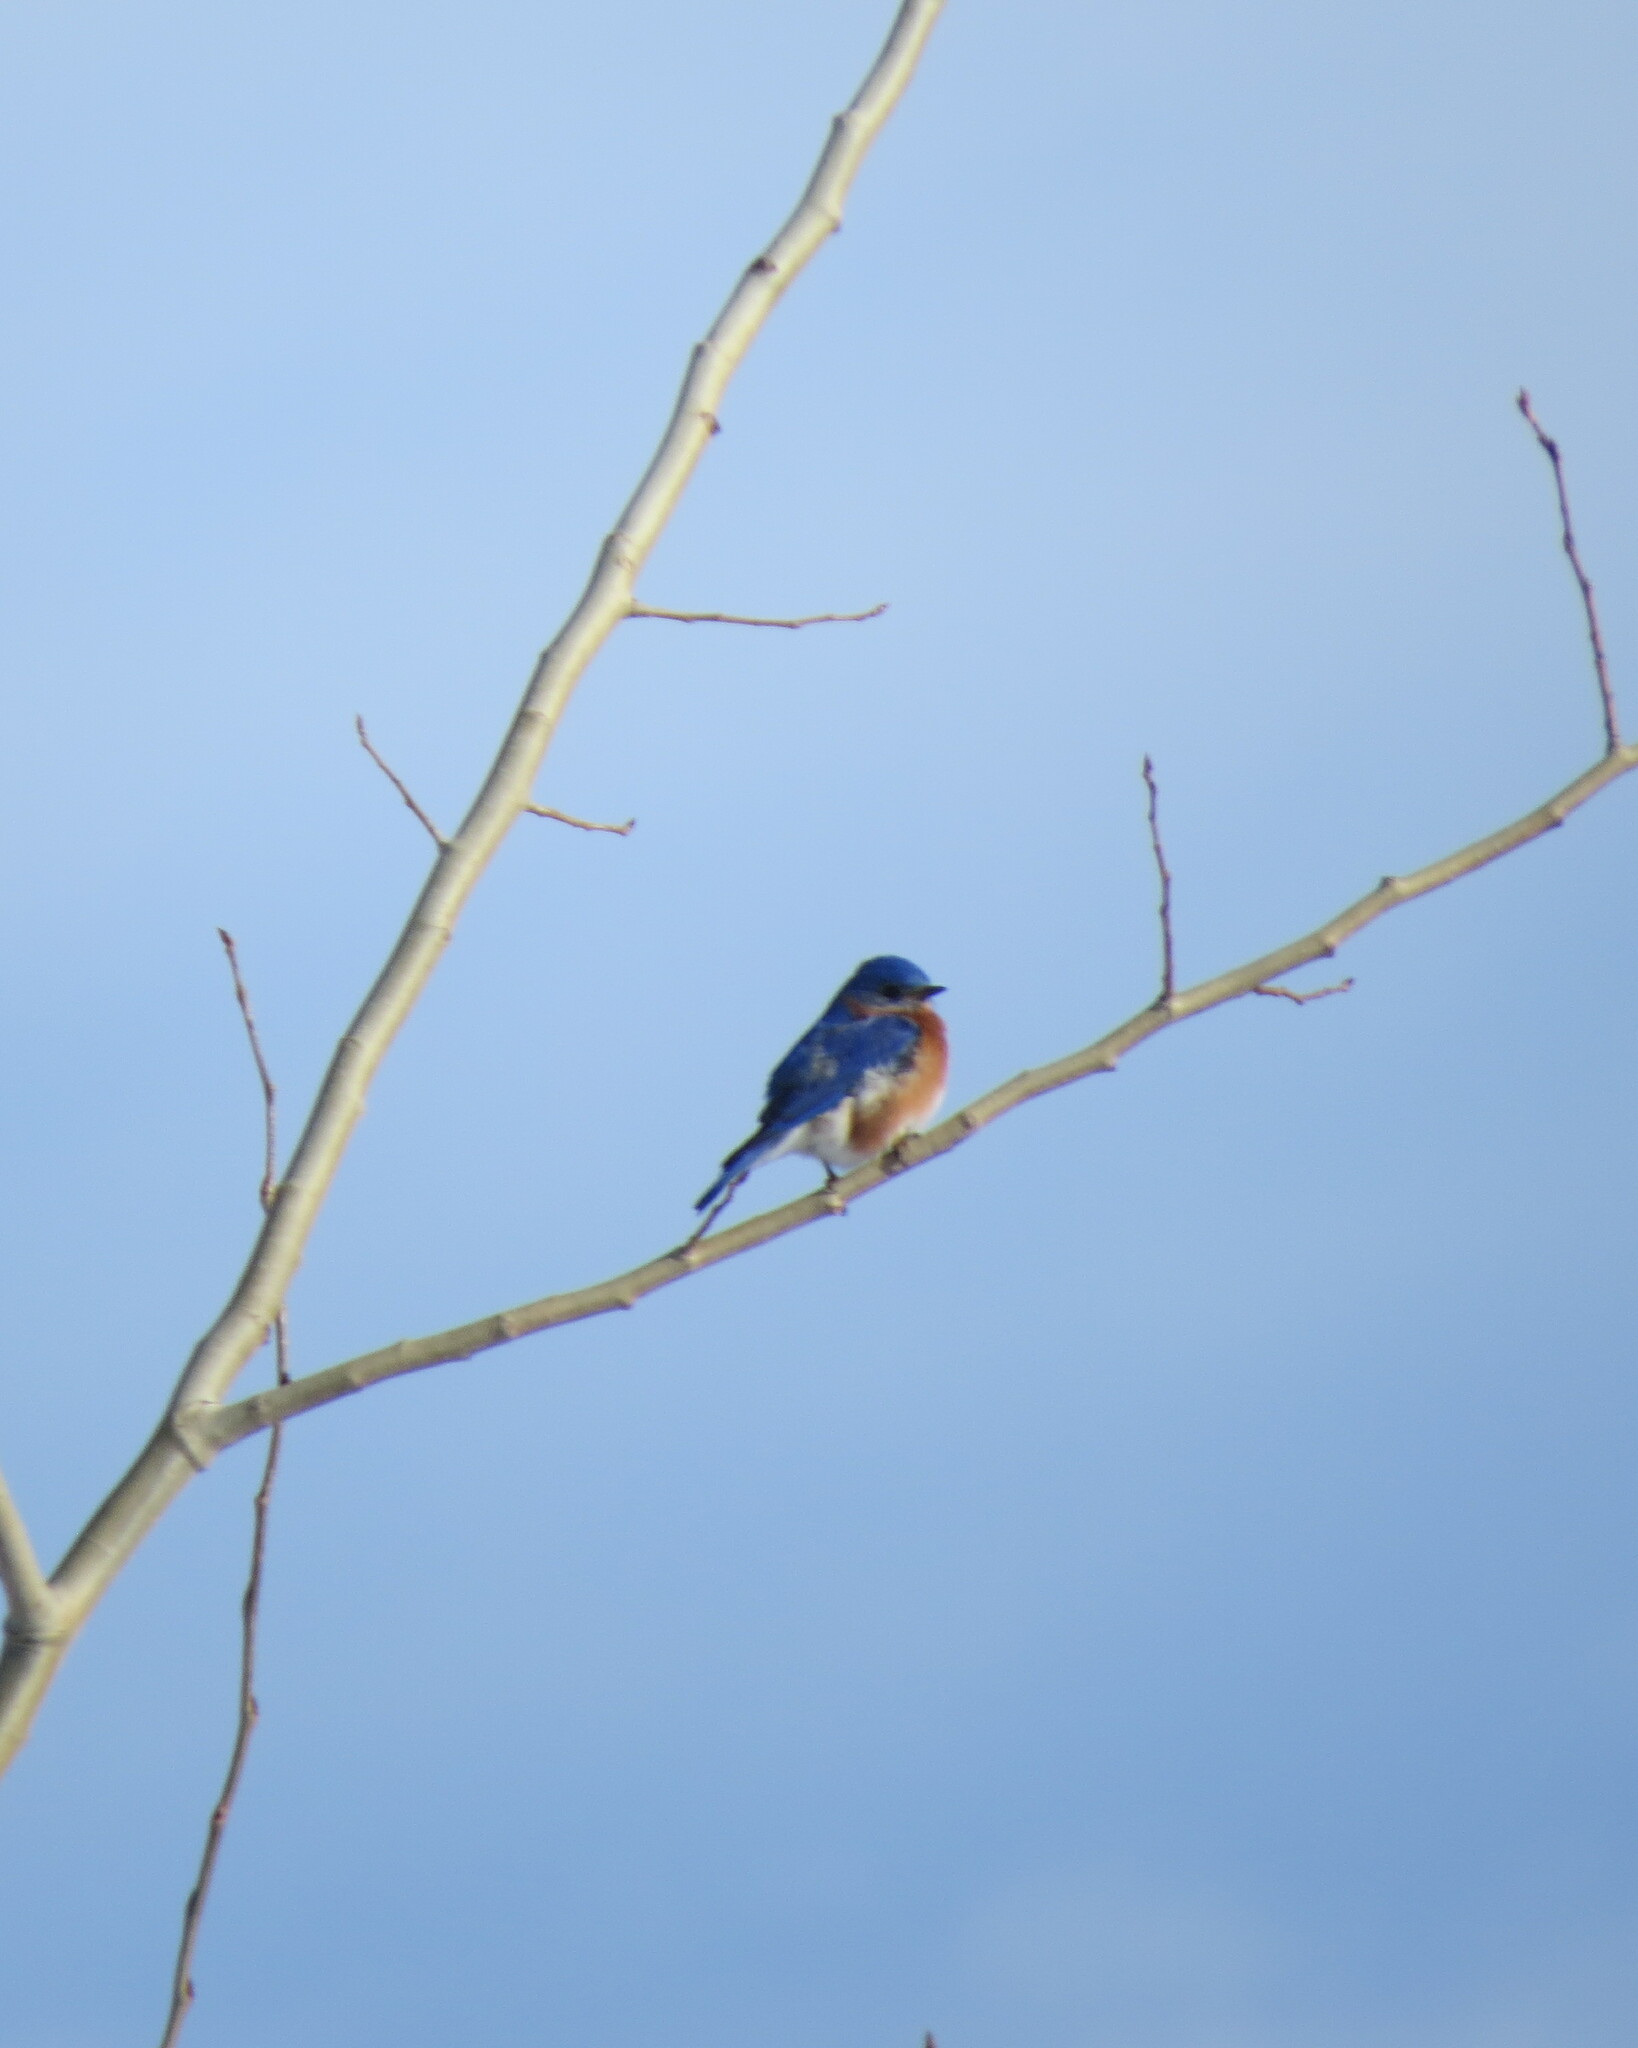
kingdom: Animalia
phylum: Chordata
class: Aves
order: Passeriformes
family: Turdidae
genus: Sialia
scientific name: Sialia sialis
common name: Eastern bluebird
